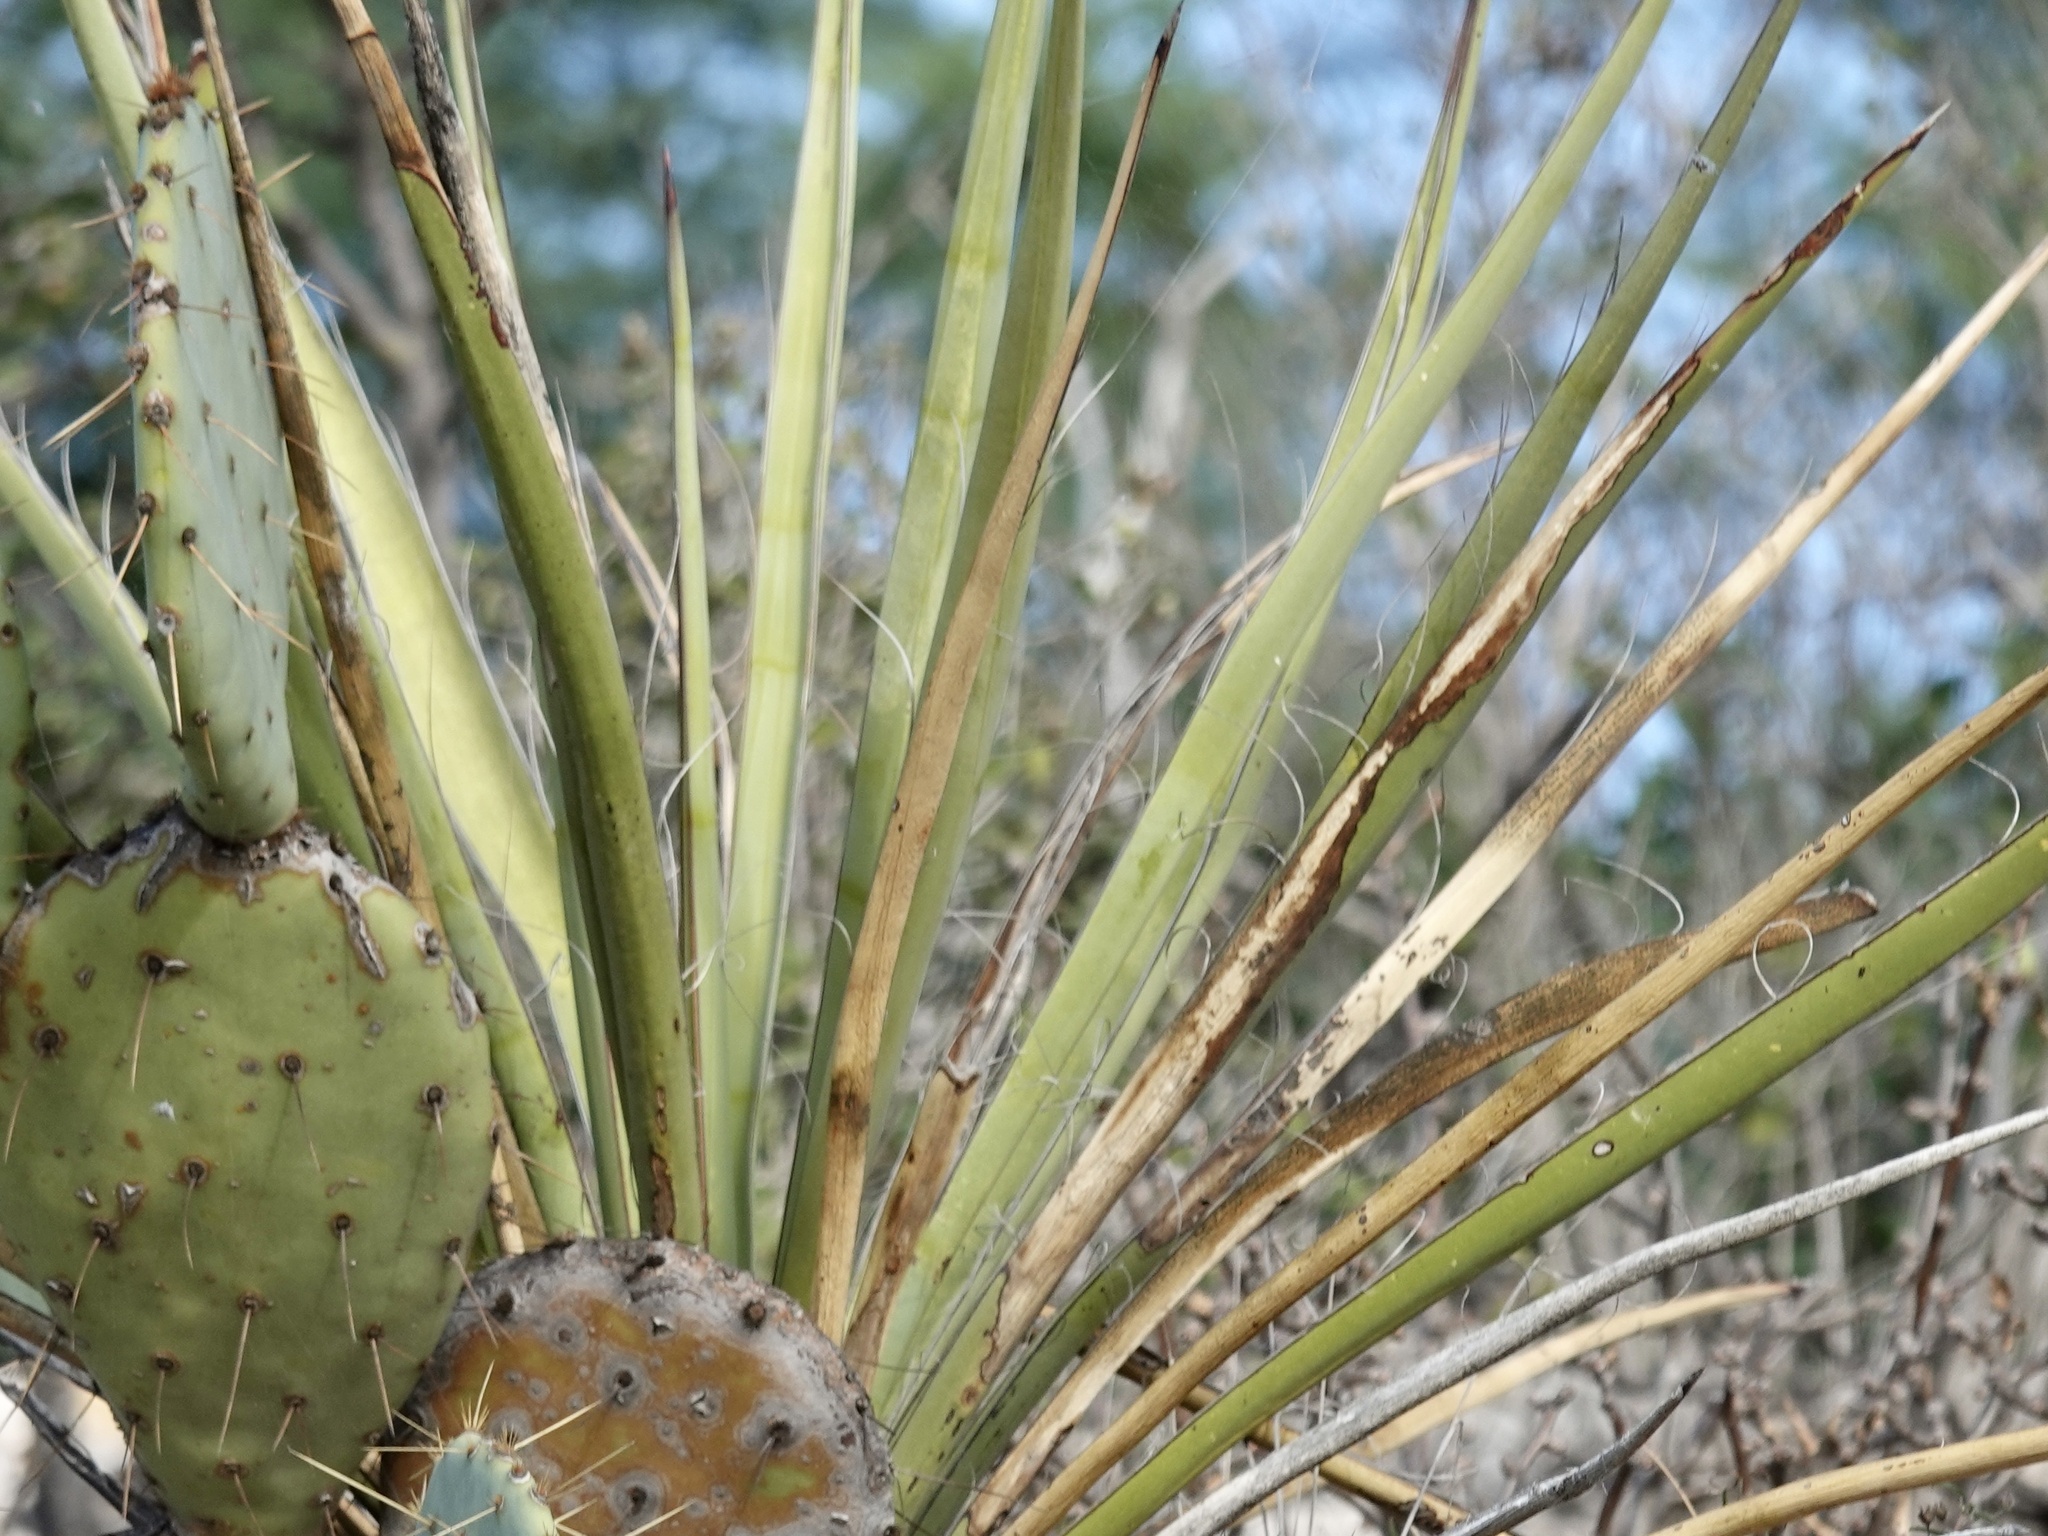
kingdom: Plantae
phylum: Tracheophyta
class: Liliopsida
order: Asparagales
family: Asparagaceae
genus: Yucca
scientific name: Yucca treculiana
